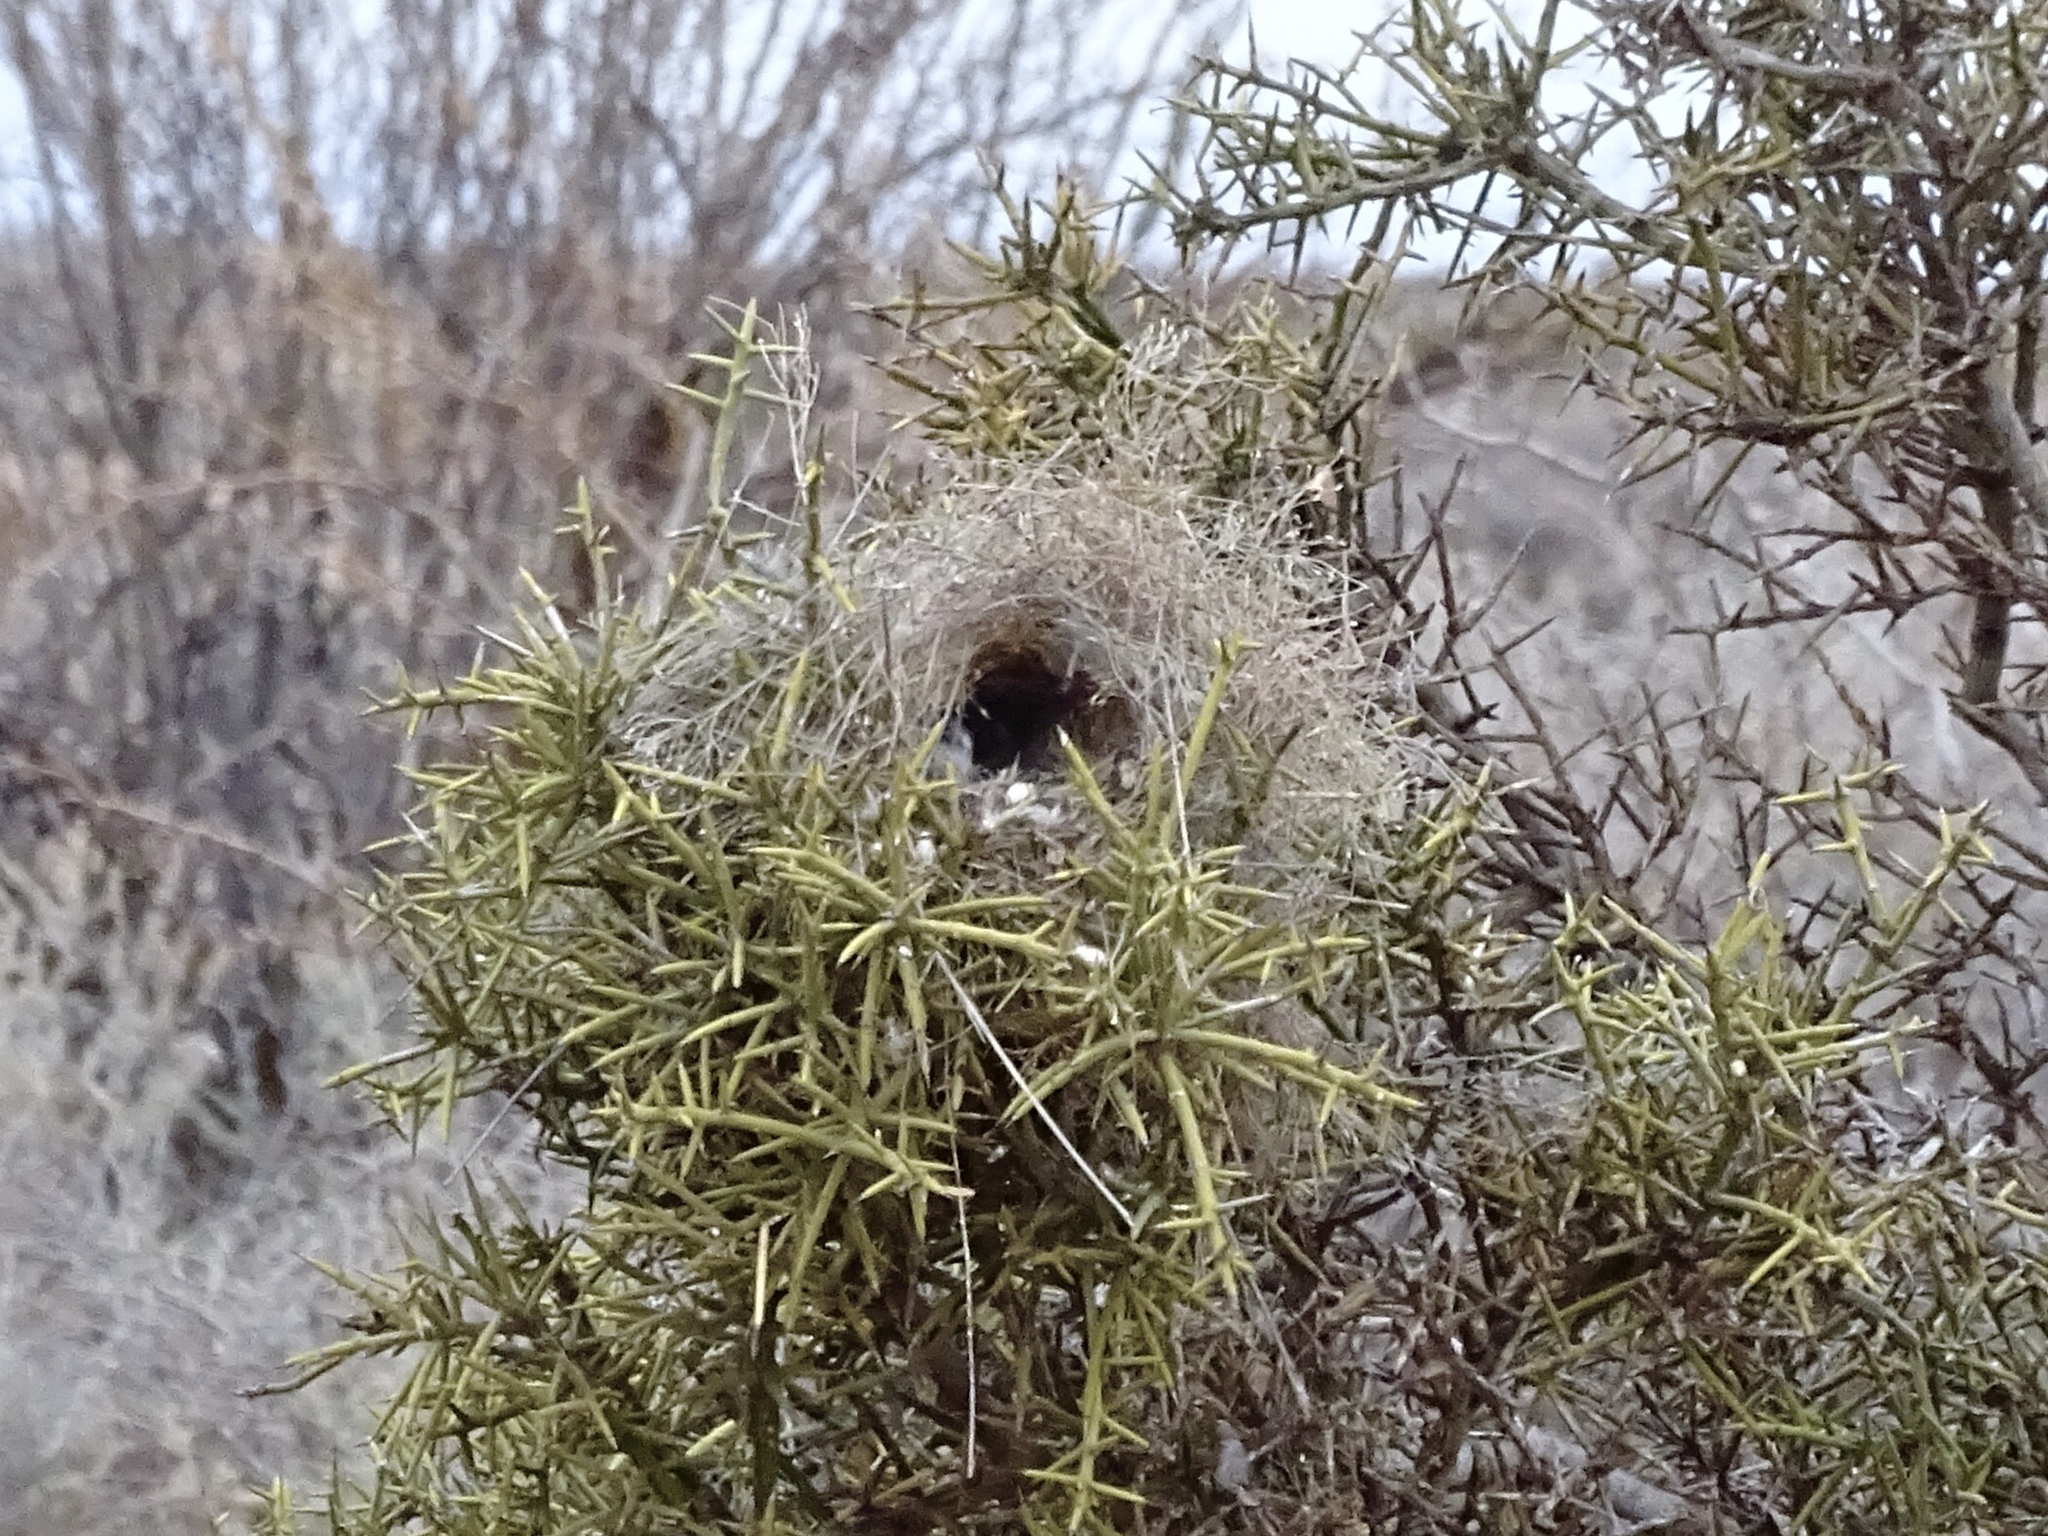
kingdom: Animalia
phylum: Chordata
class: Aves
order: Passeriformes
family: Remizidae
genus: Auriparus
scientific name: Auriparus flaviceps
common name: Verdin
